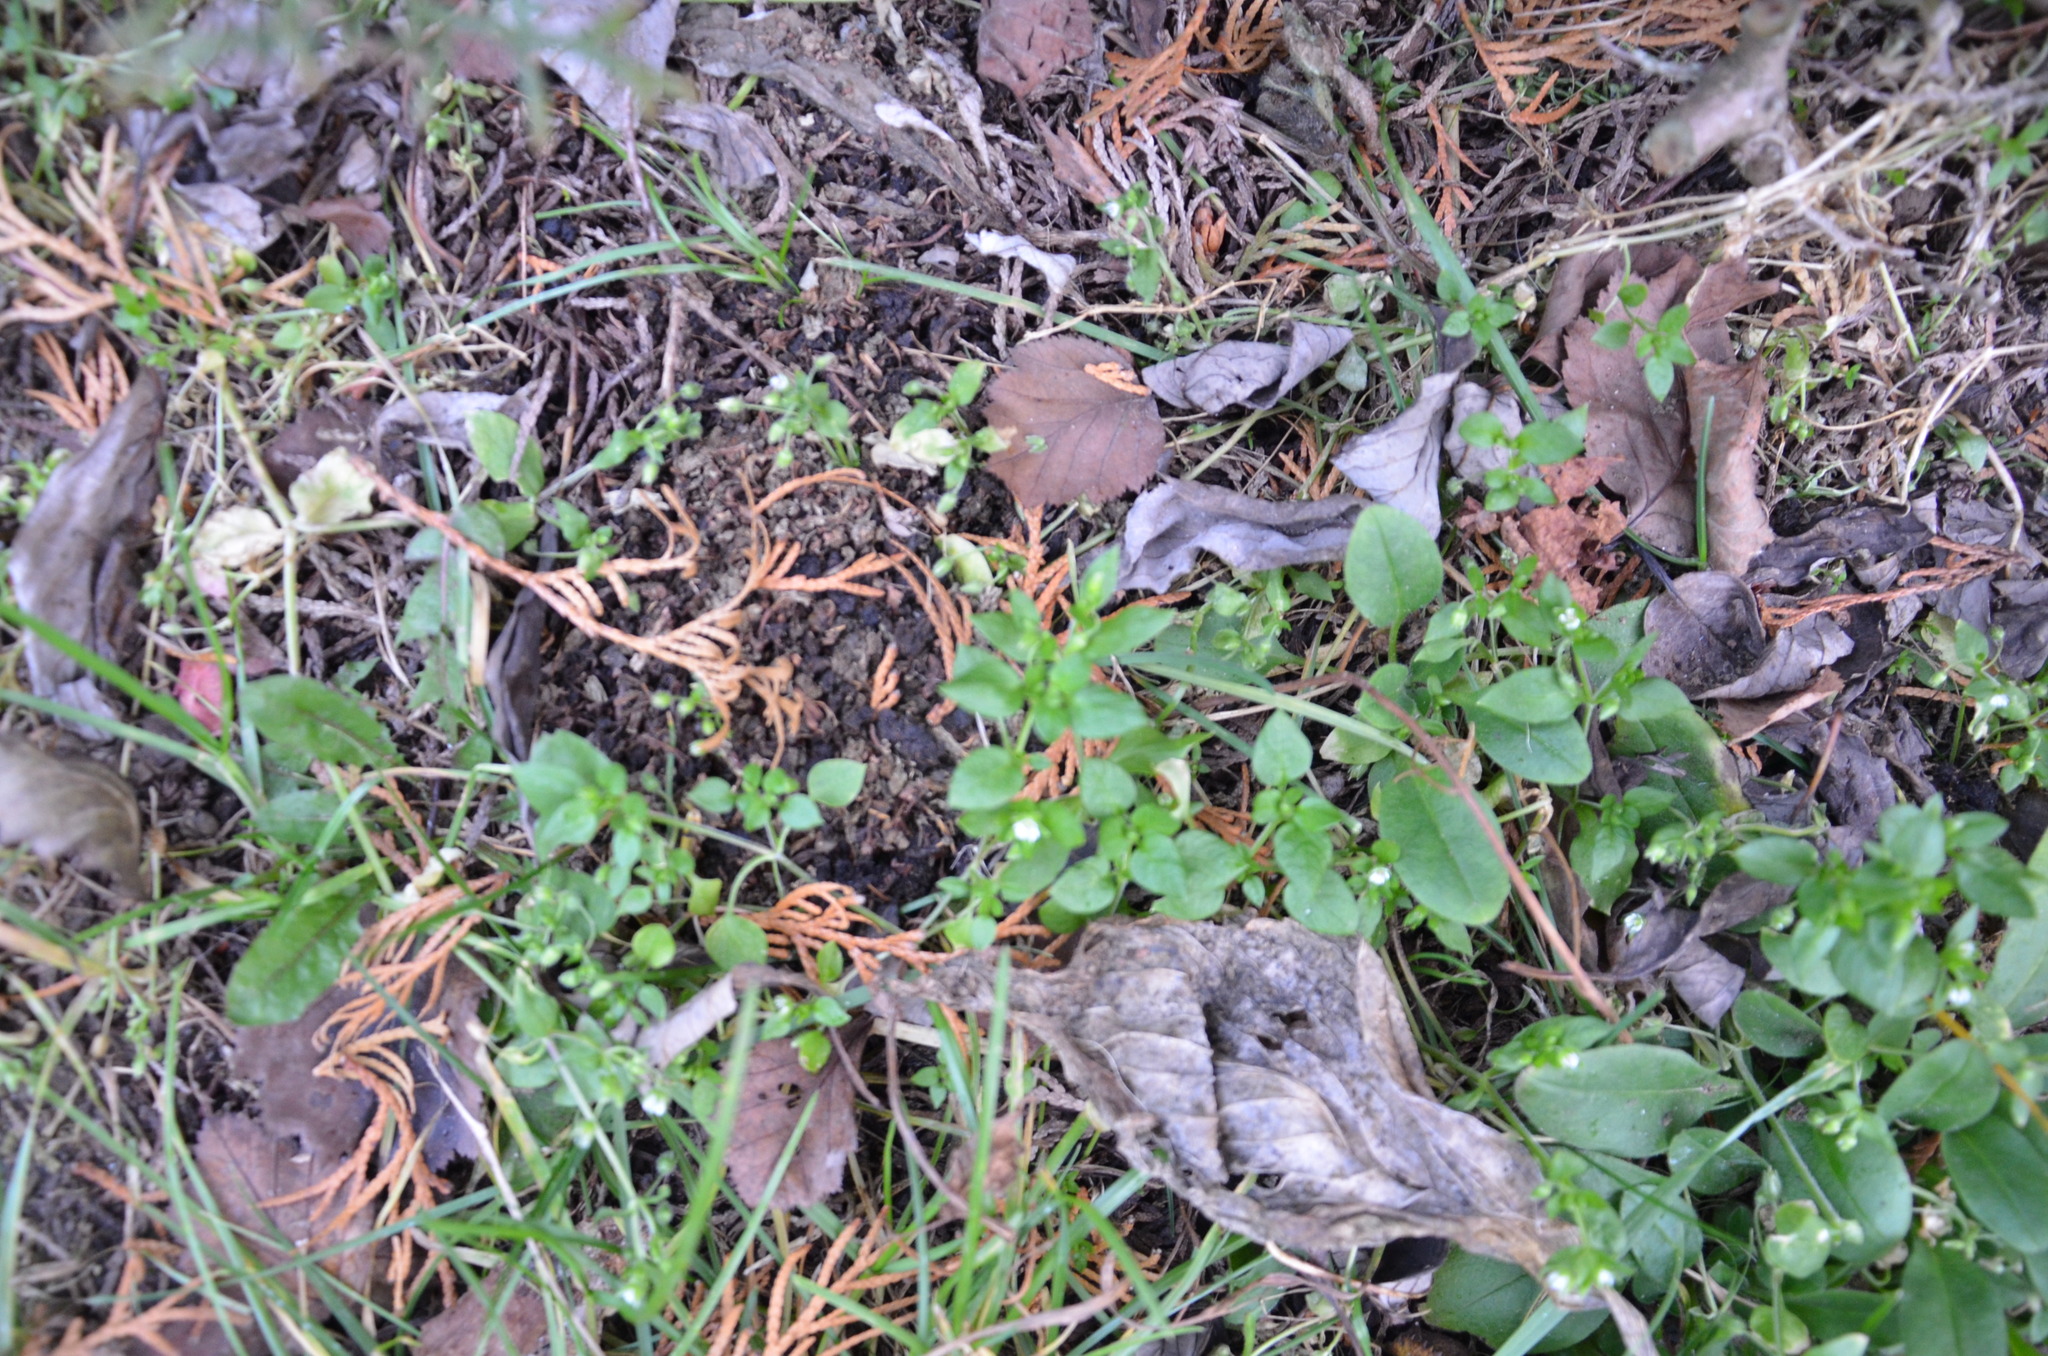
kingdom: Plantae
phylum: Tracheophyta
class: Magnoliopsida
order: Caryophyllales
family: Caryophyllaceae
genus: Stellaria
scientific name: Stellaria media
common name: Common chickweed
